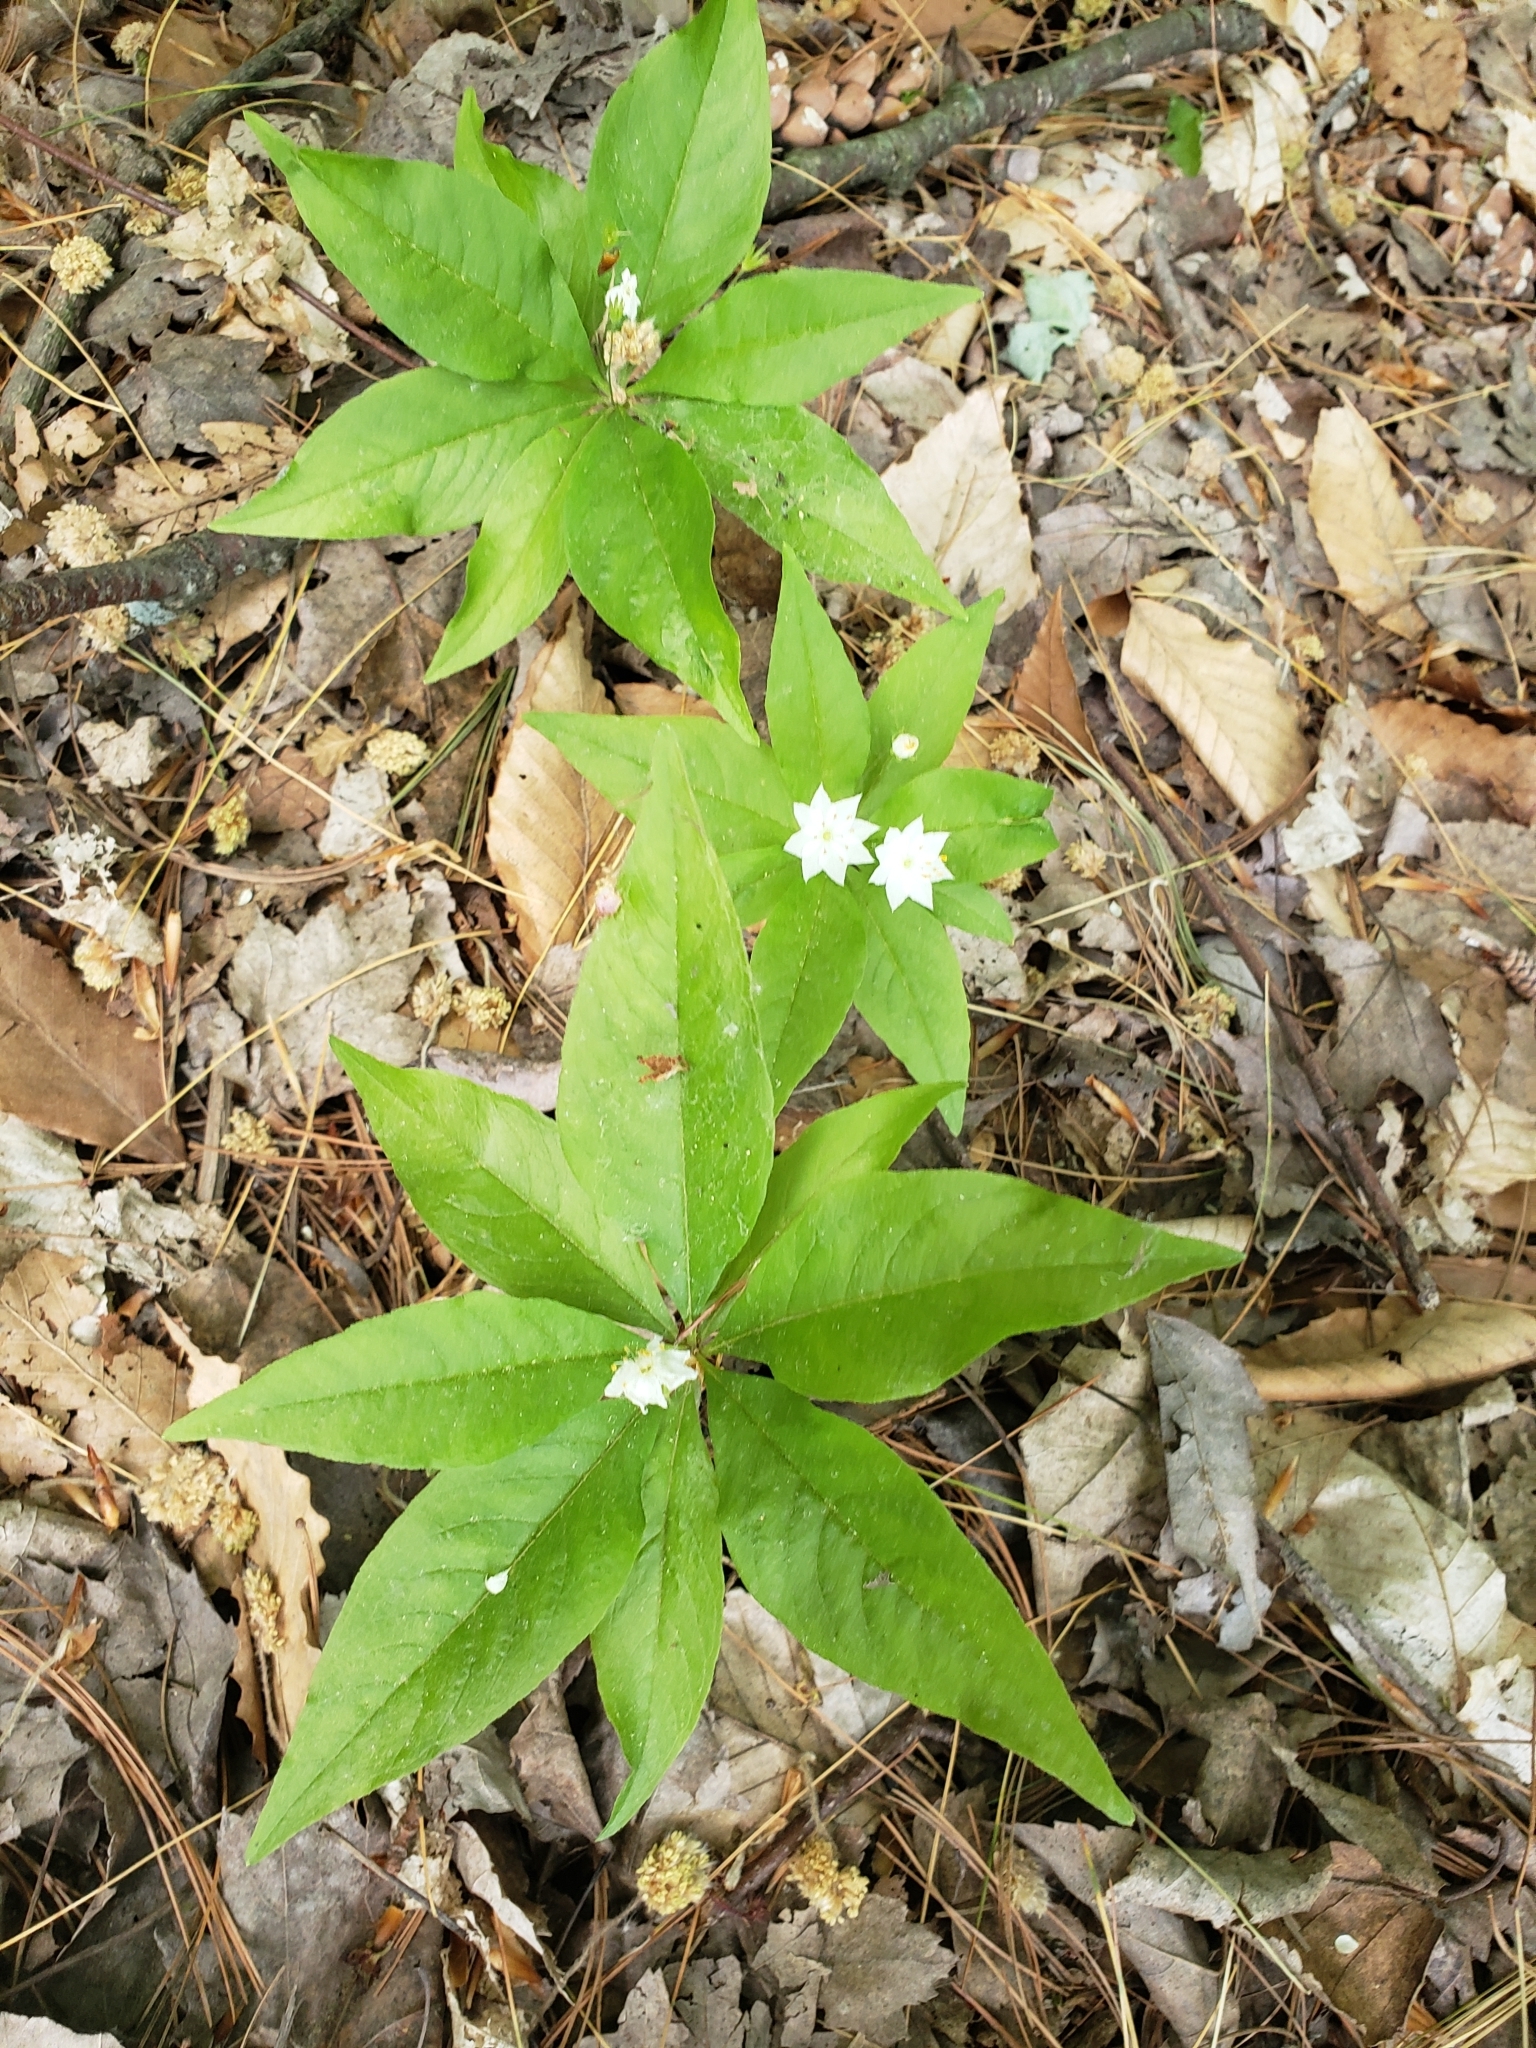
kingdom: Plantae
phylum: Tracheophyta
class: Magnoliopsida
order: Ericales
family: Primulaceae
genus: Lysimachia
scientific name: Lysimachia borealis
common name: American starflower
